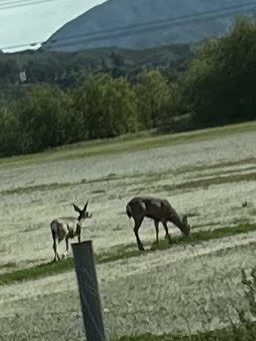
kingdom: Animalia
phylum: Chordata
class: Mammalia
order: Artiodactyla
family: Cervidae
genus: Odocoileus
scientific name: Odocoileus hemionus
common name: Mule deer
